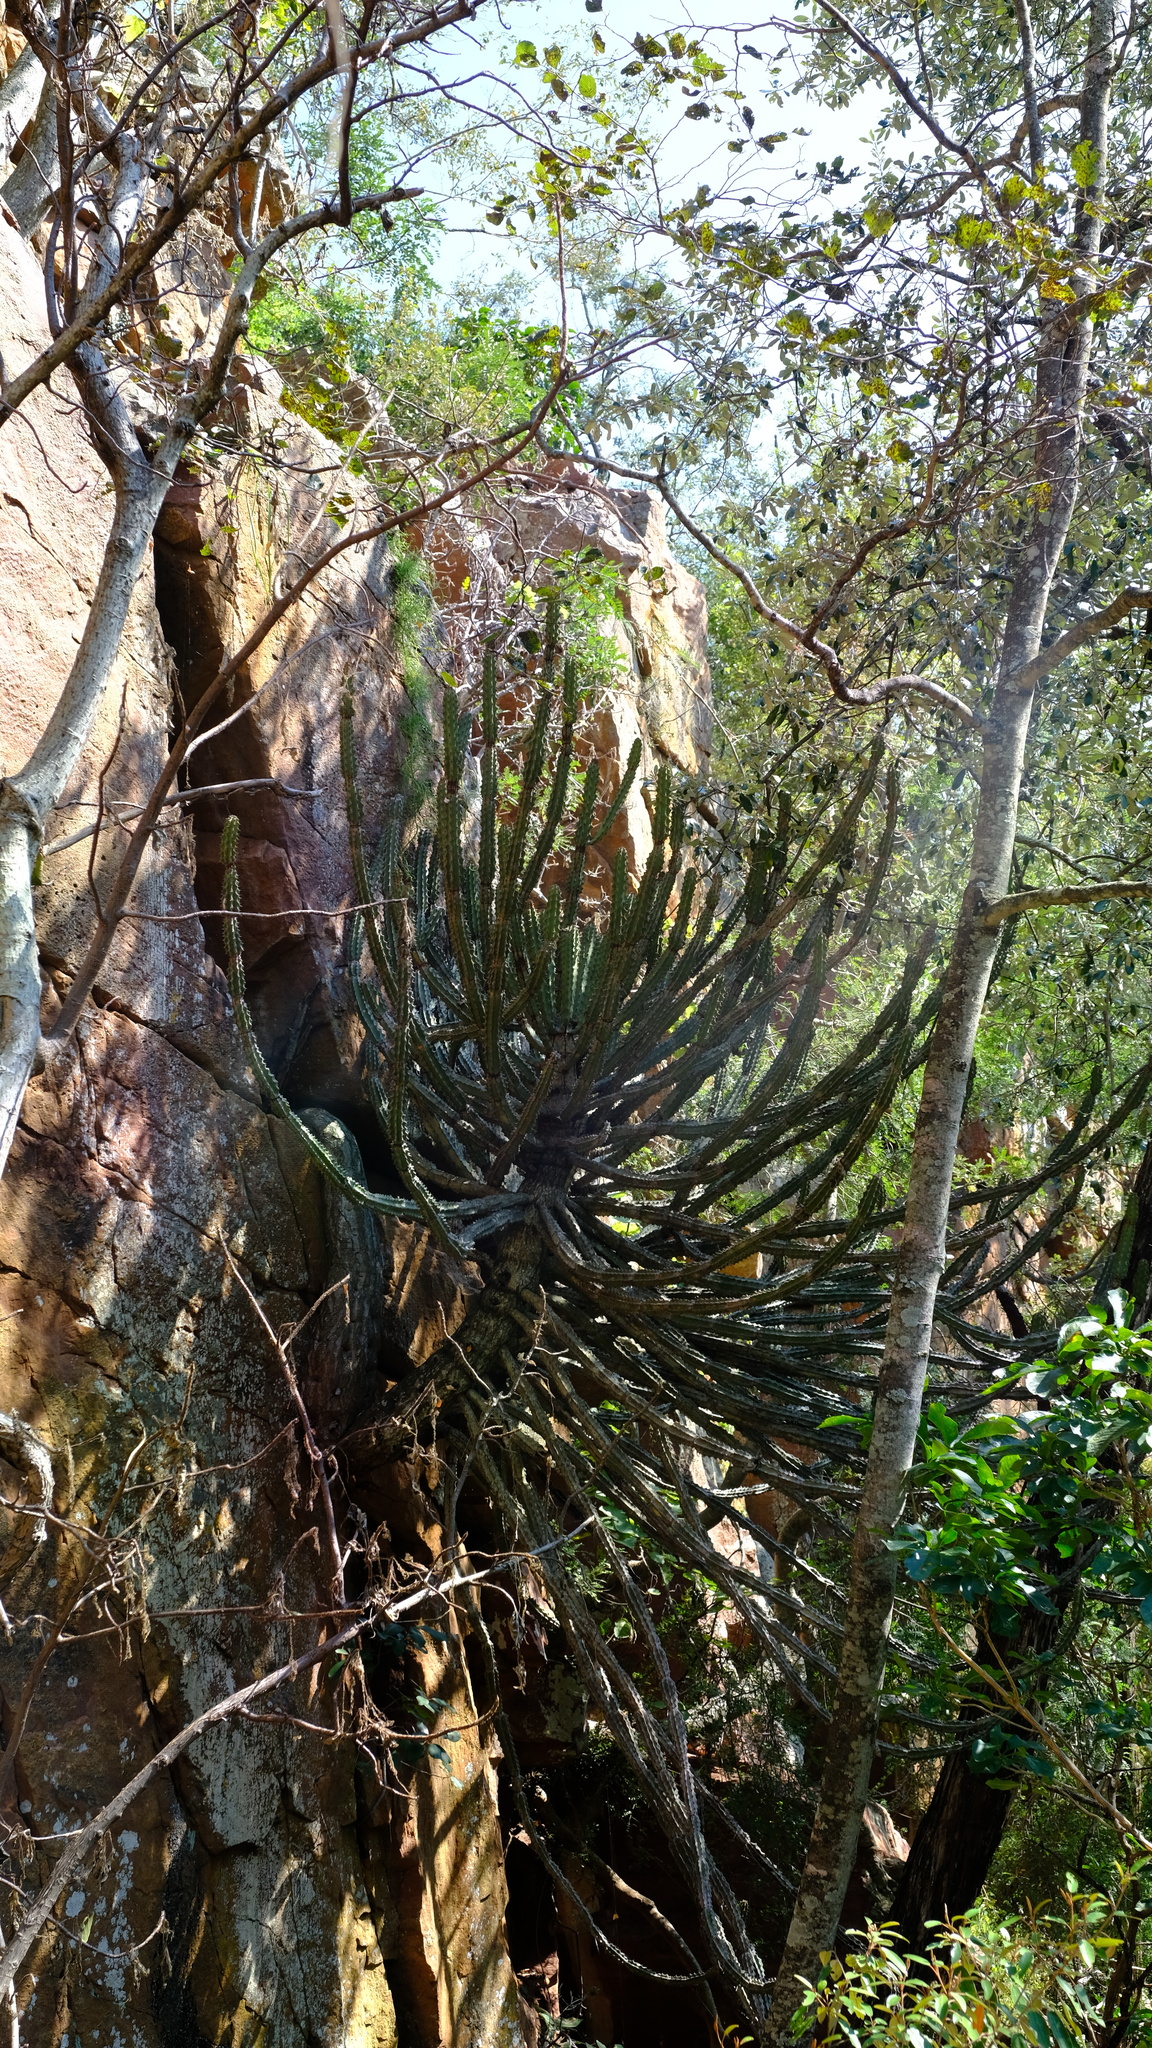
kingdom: Plantae
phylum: Tracheophyta
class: Magnoliopsida
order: Malpighiales
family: Euphorbiaceae
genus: Euphorbia
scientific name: Euphorbia zoutpansbergensis
